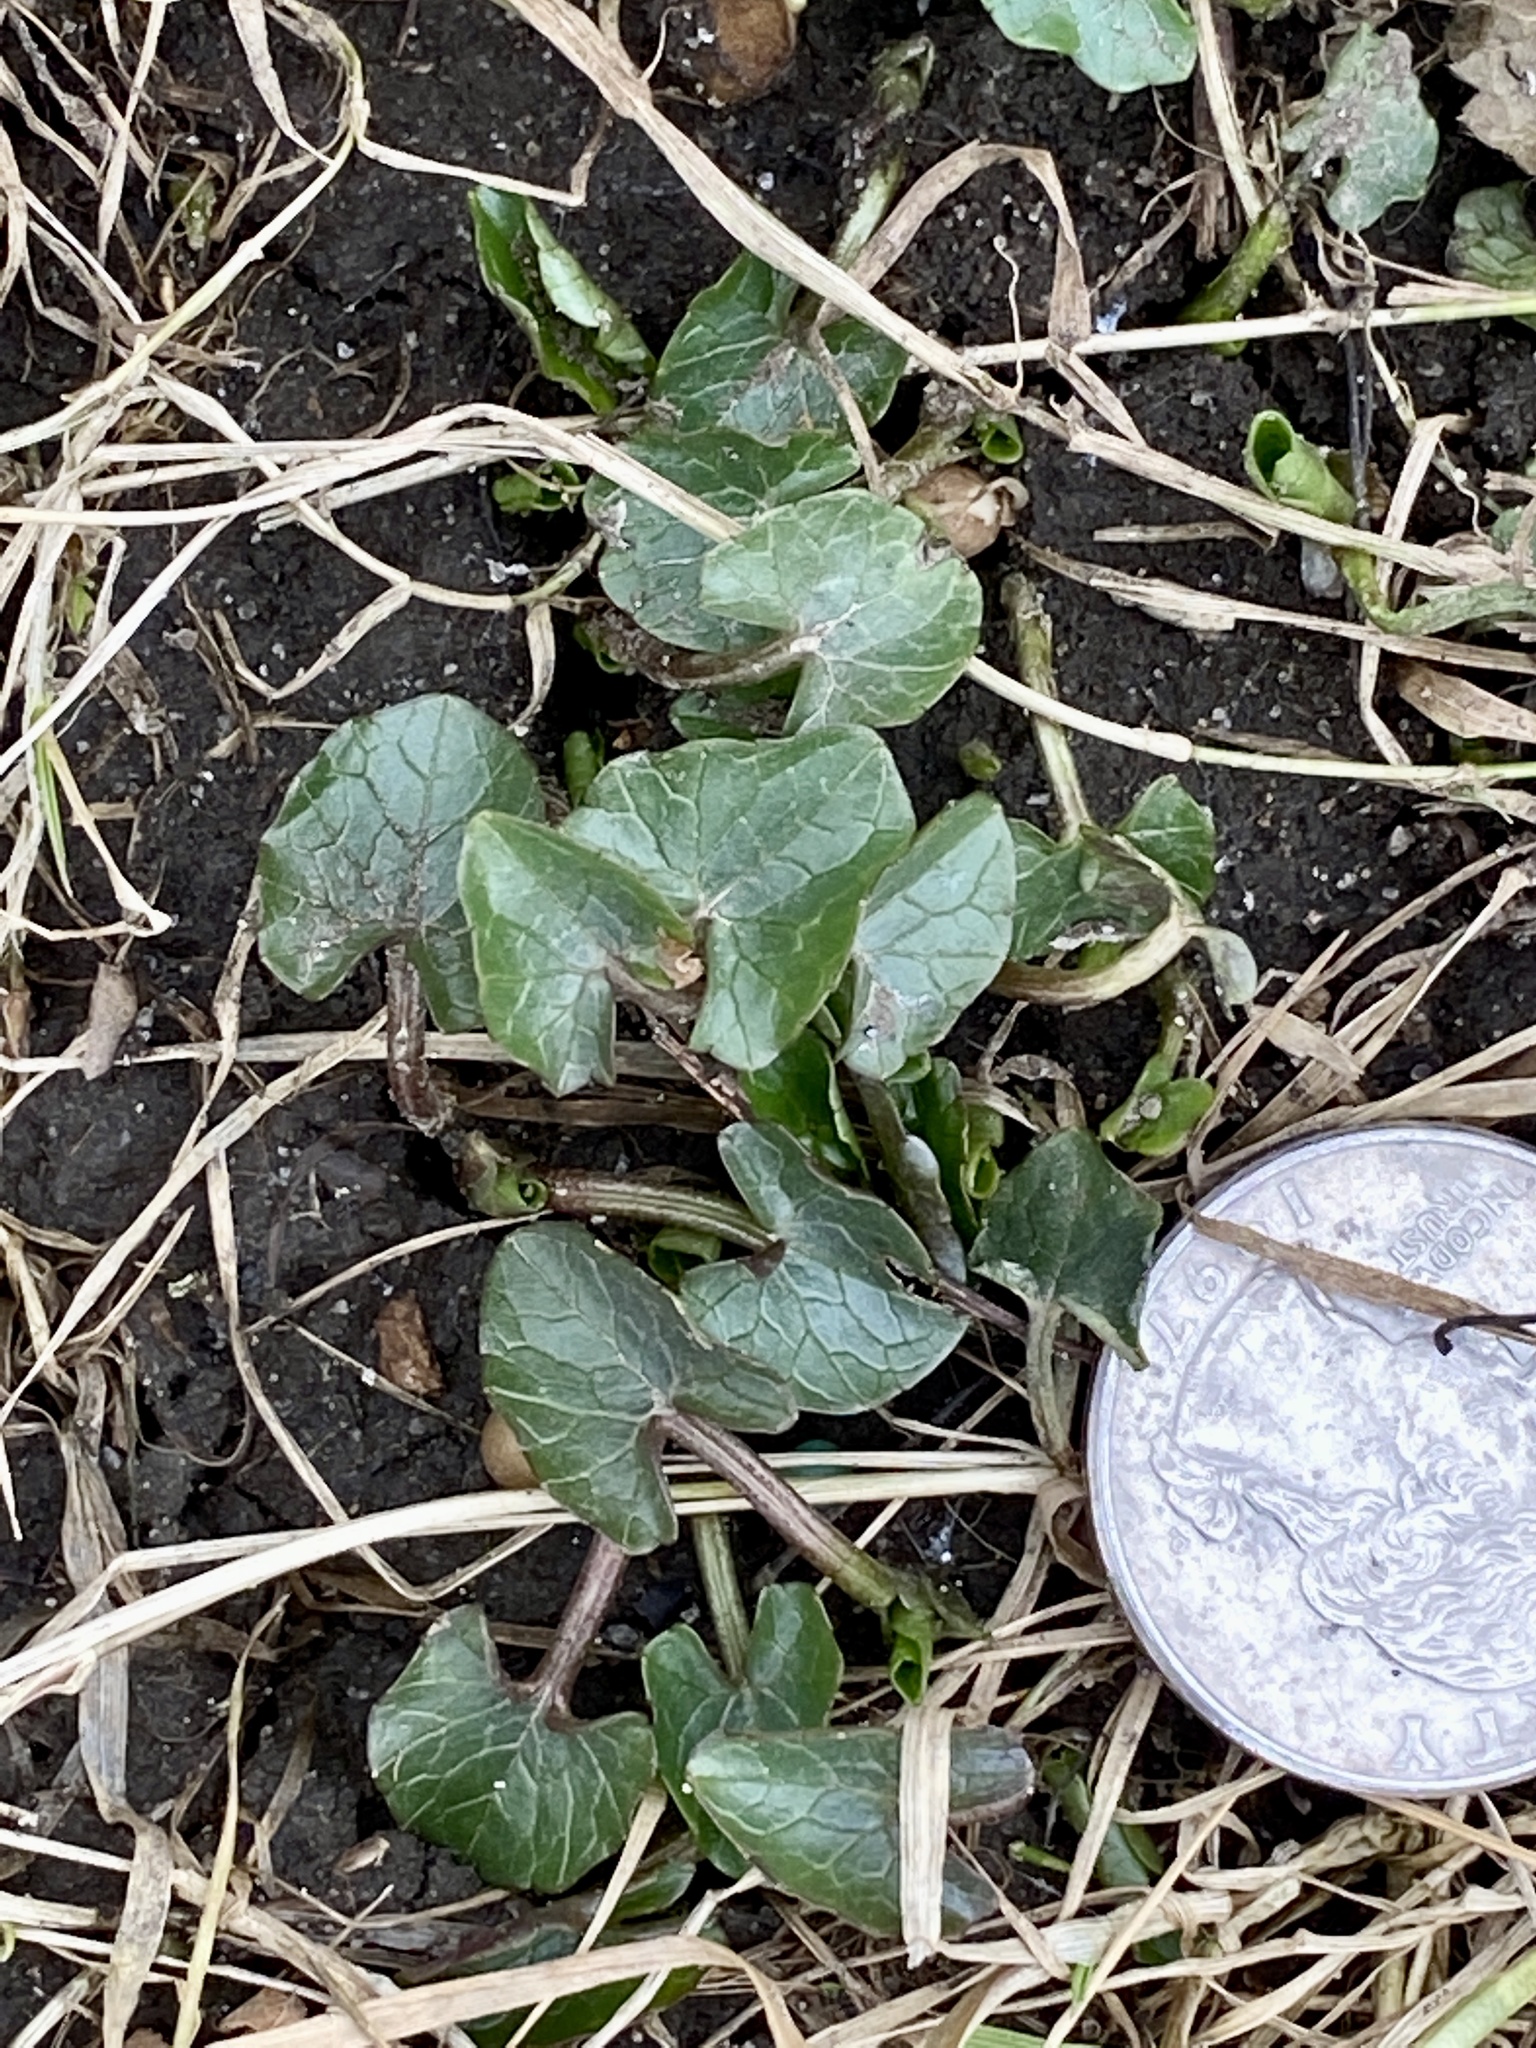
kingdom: Plantae
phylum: Tracheophyta
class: Magnoliopsida
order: Ranunculales
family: Ranunculaceae
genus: Ficaria
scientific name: Ficaria verna
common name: Lesser celandine
